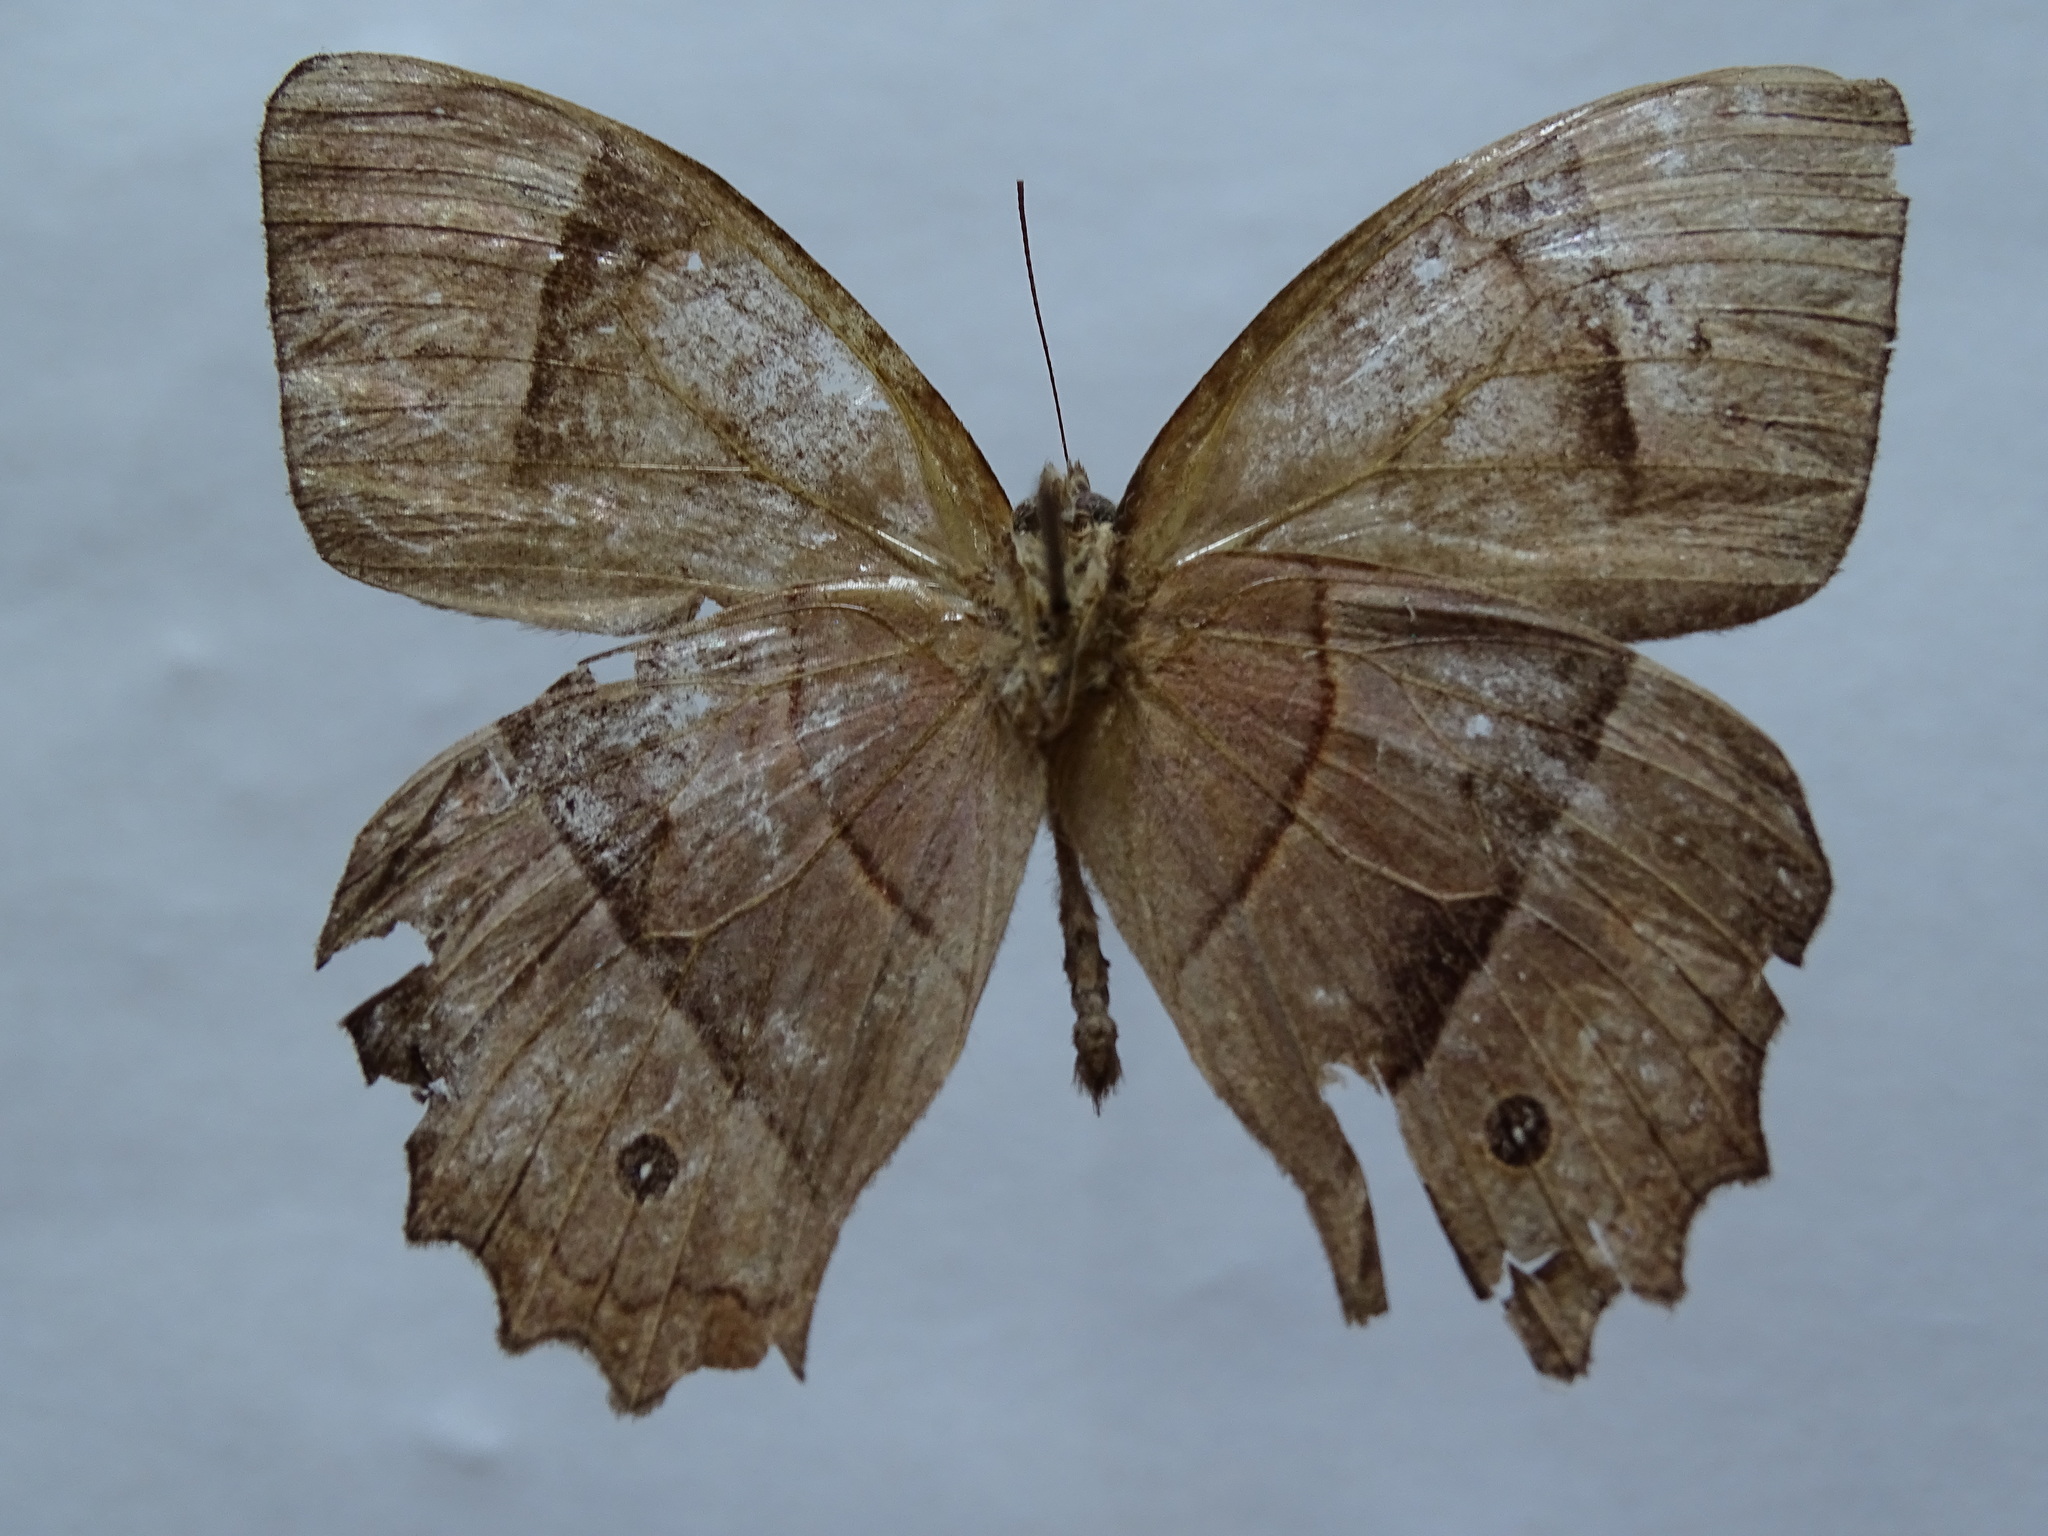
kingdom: Animalia
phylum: Arthropoda
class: Insecta
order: Lepidoptera
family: Nymphalidae
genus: Taygetis
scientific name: Taygetis salvini
